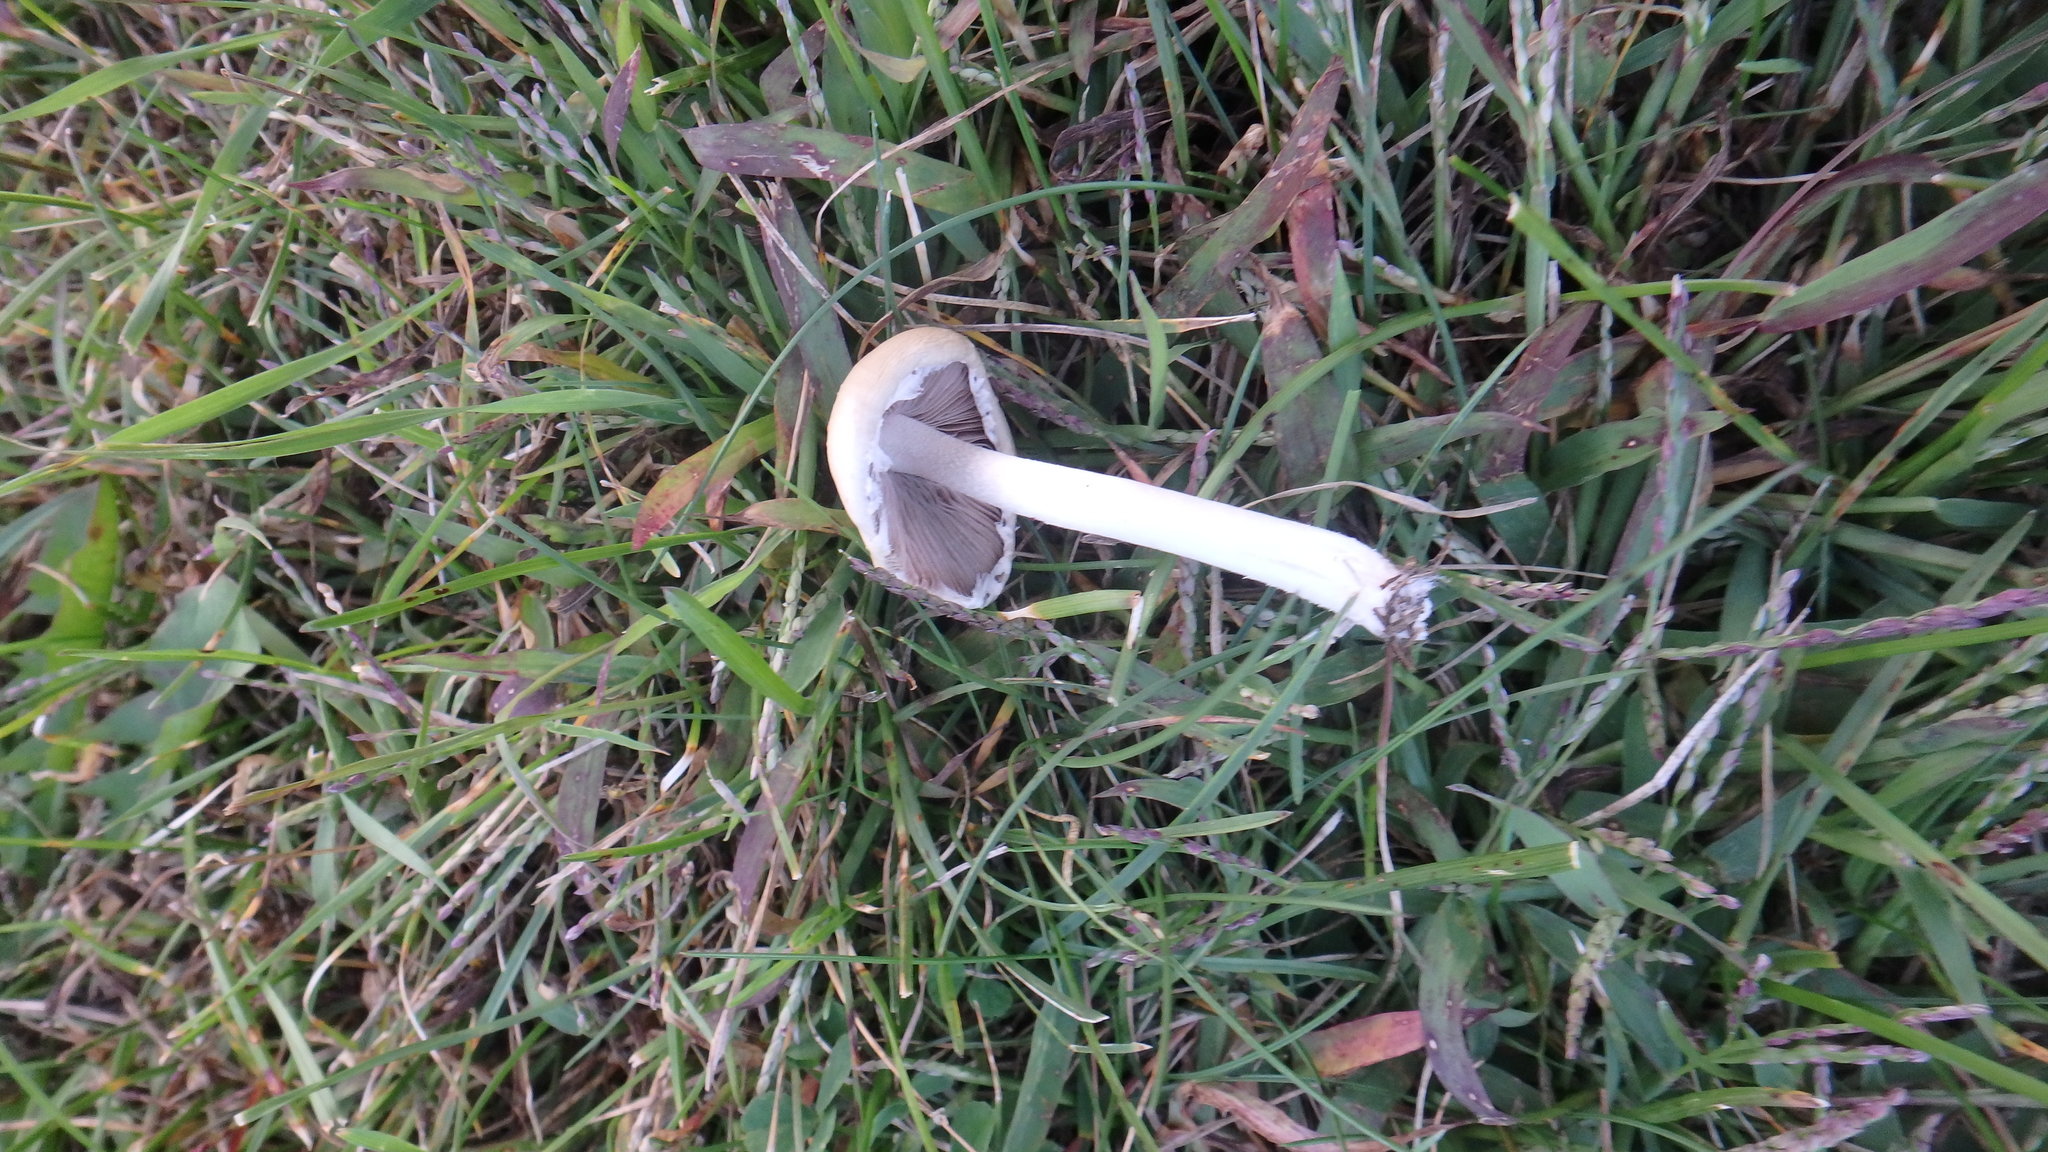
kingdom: Fungi
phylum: Basidiomycota
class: Agaricomycetes
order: Agaricales
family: Psathyrellaceae
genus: Candolleomyces
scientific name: Candolleomyces candolleanus
